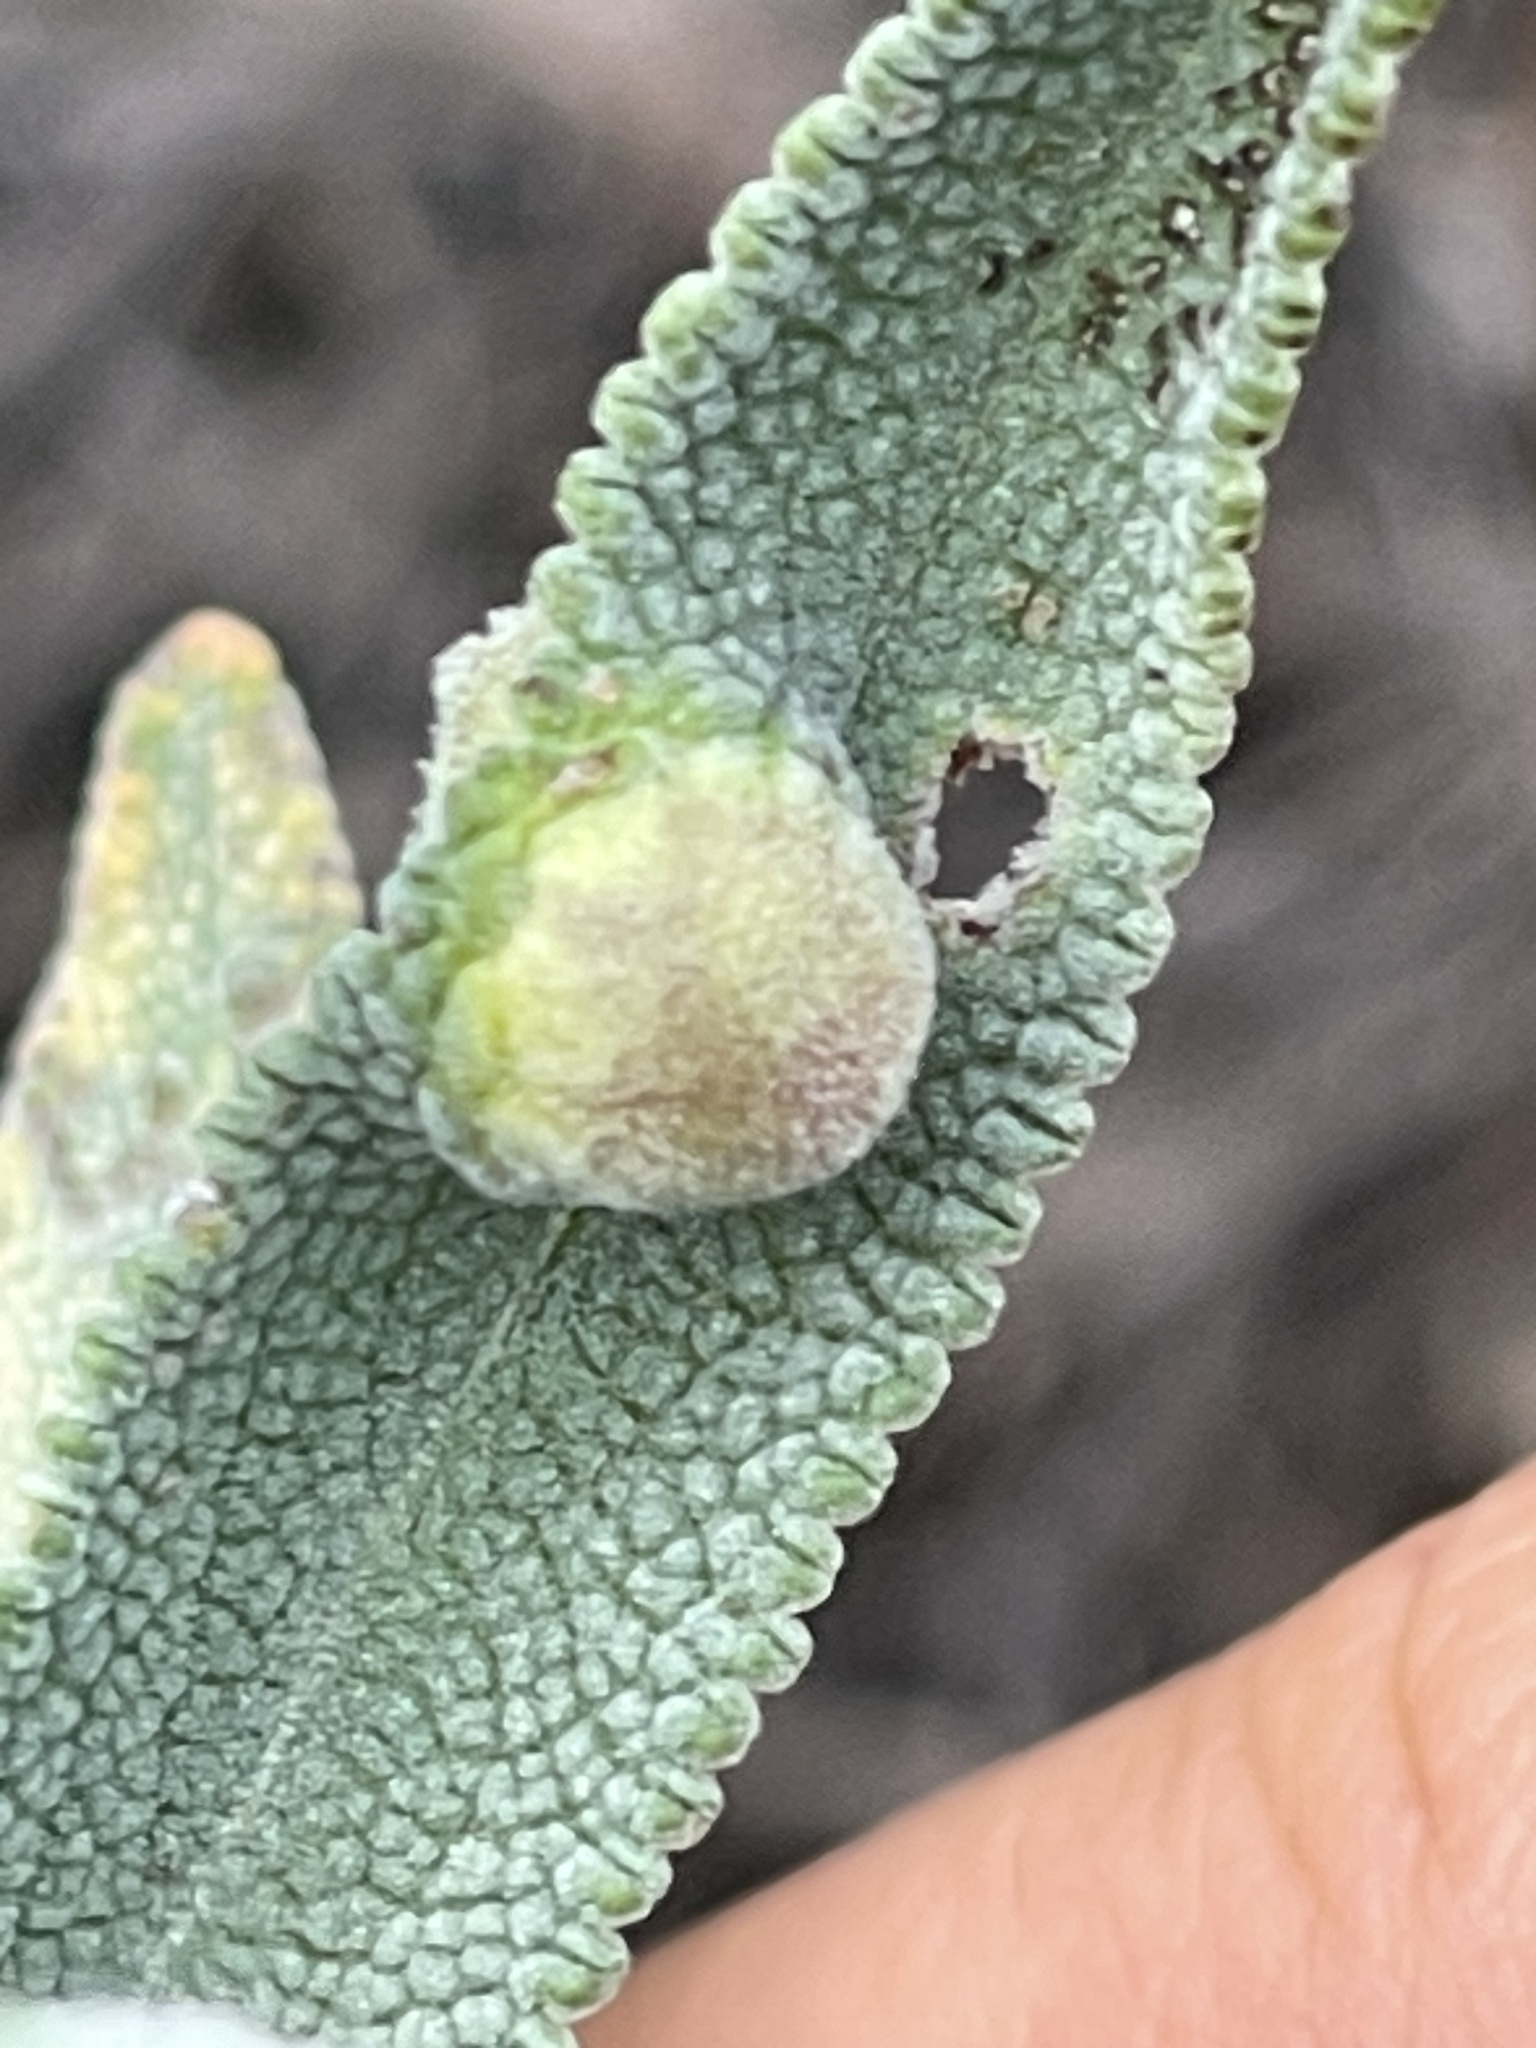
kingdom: Animalia
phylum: Arthropoda
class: Insecta
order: Diptera
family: Cecidomyiidae
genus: Rhopalomyia
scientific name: Rhopalomyia audibertiae
